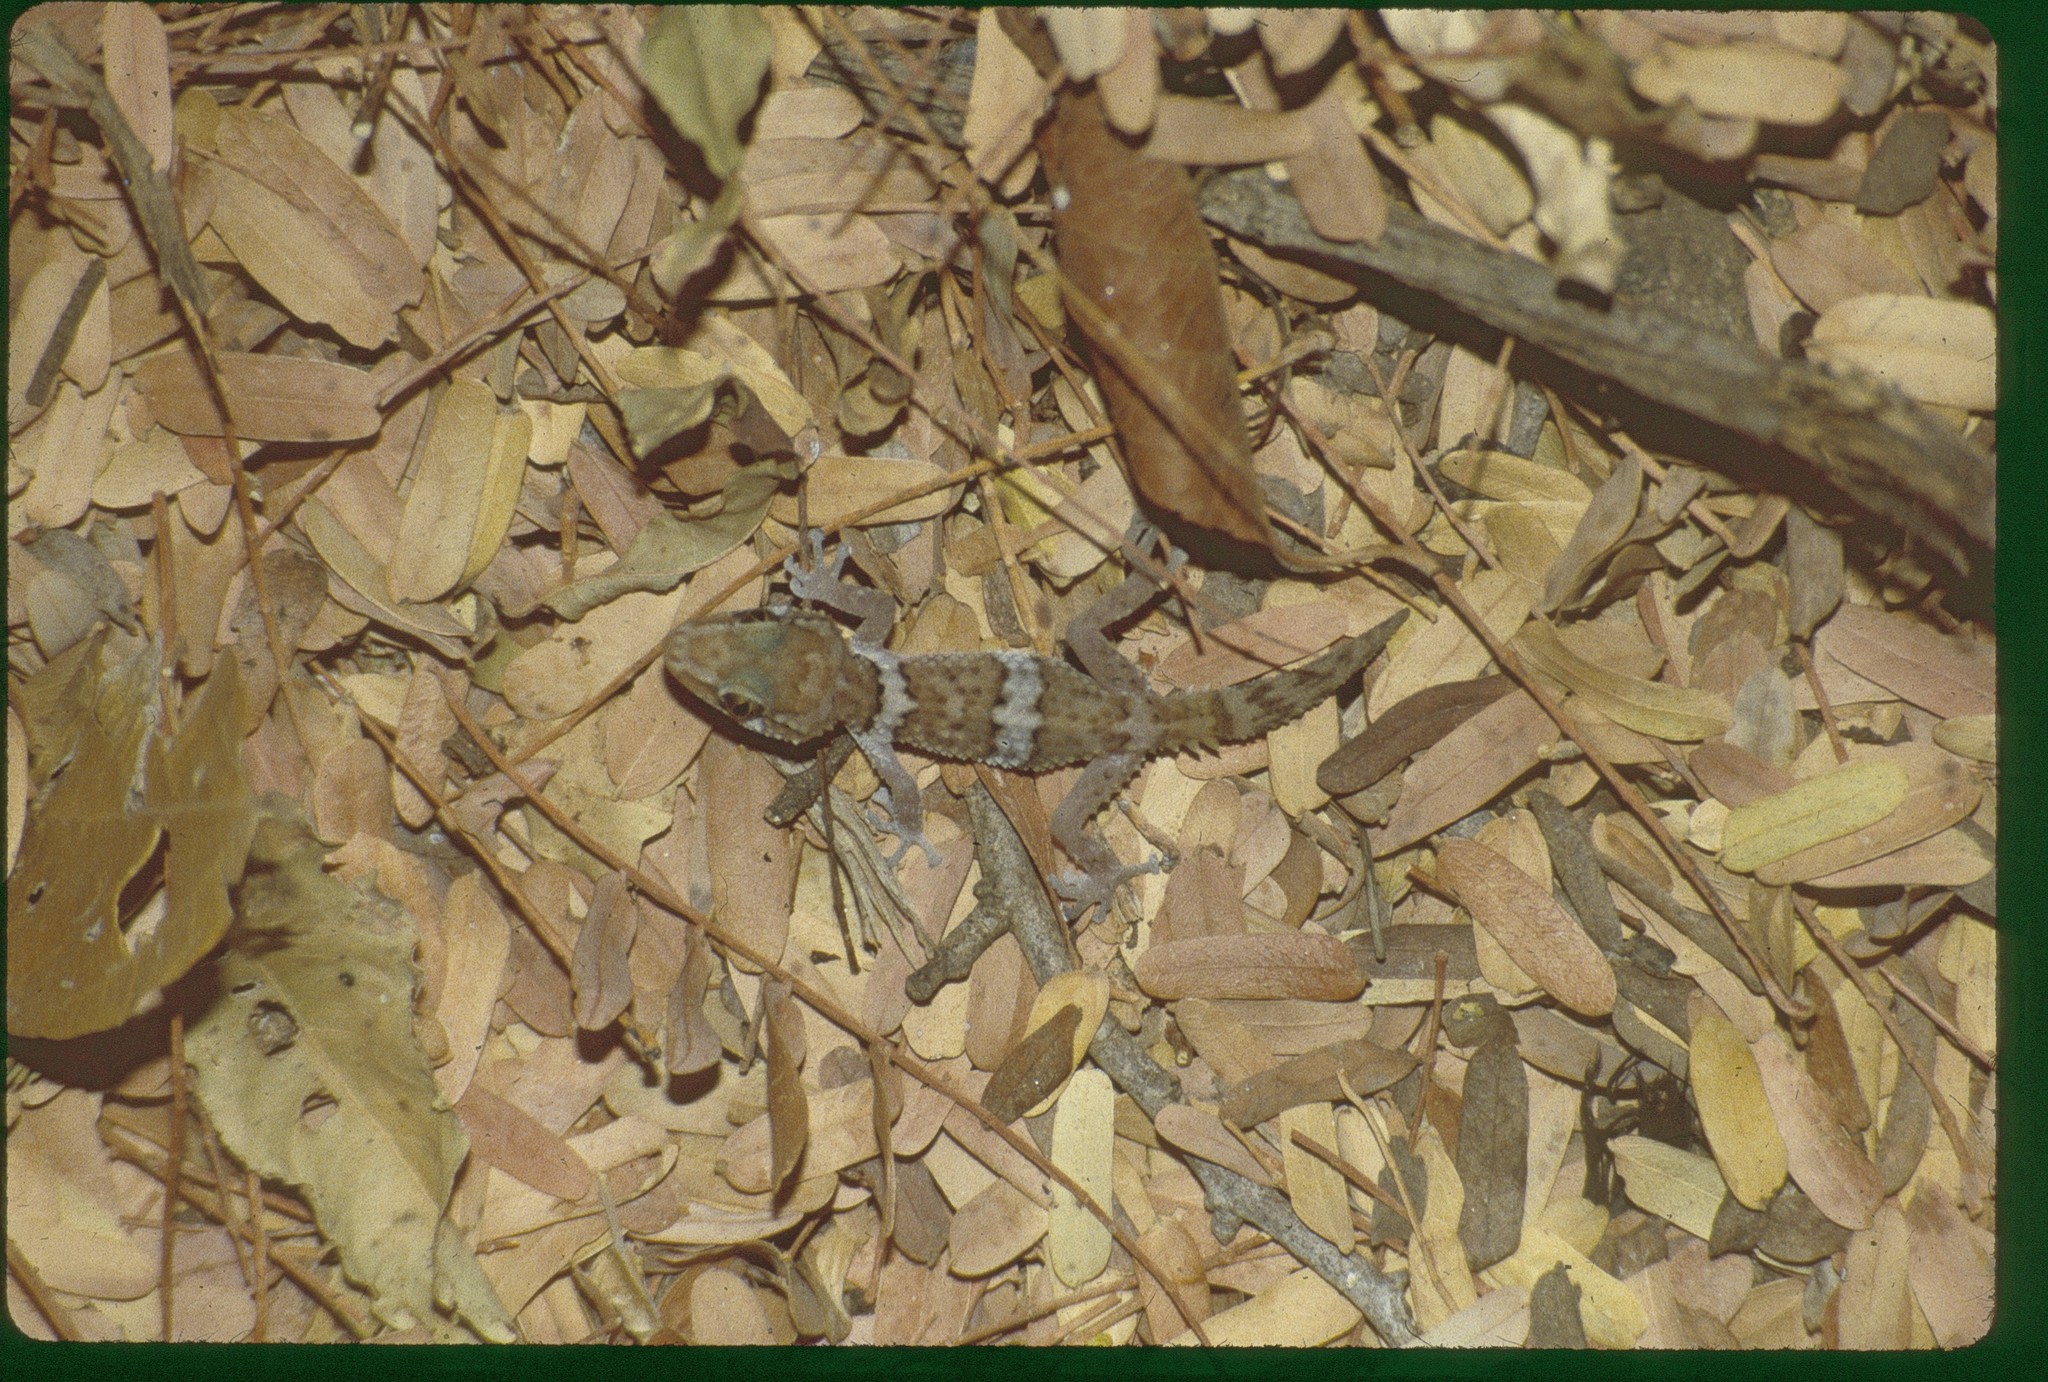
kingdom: Animalia
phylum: Chordata
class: Squamata
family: Gekkonidae
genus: Paroedura
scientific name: Paroedura bastardi
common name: Mocquard's madagascar ground gecko
